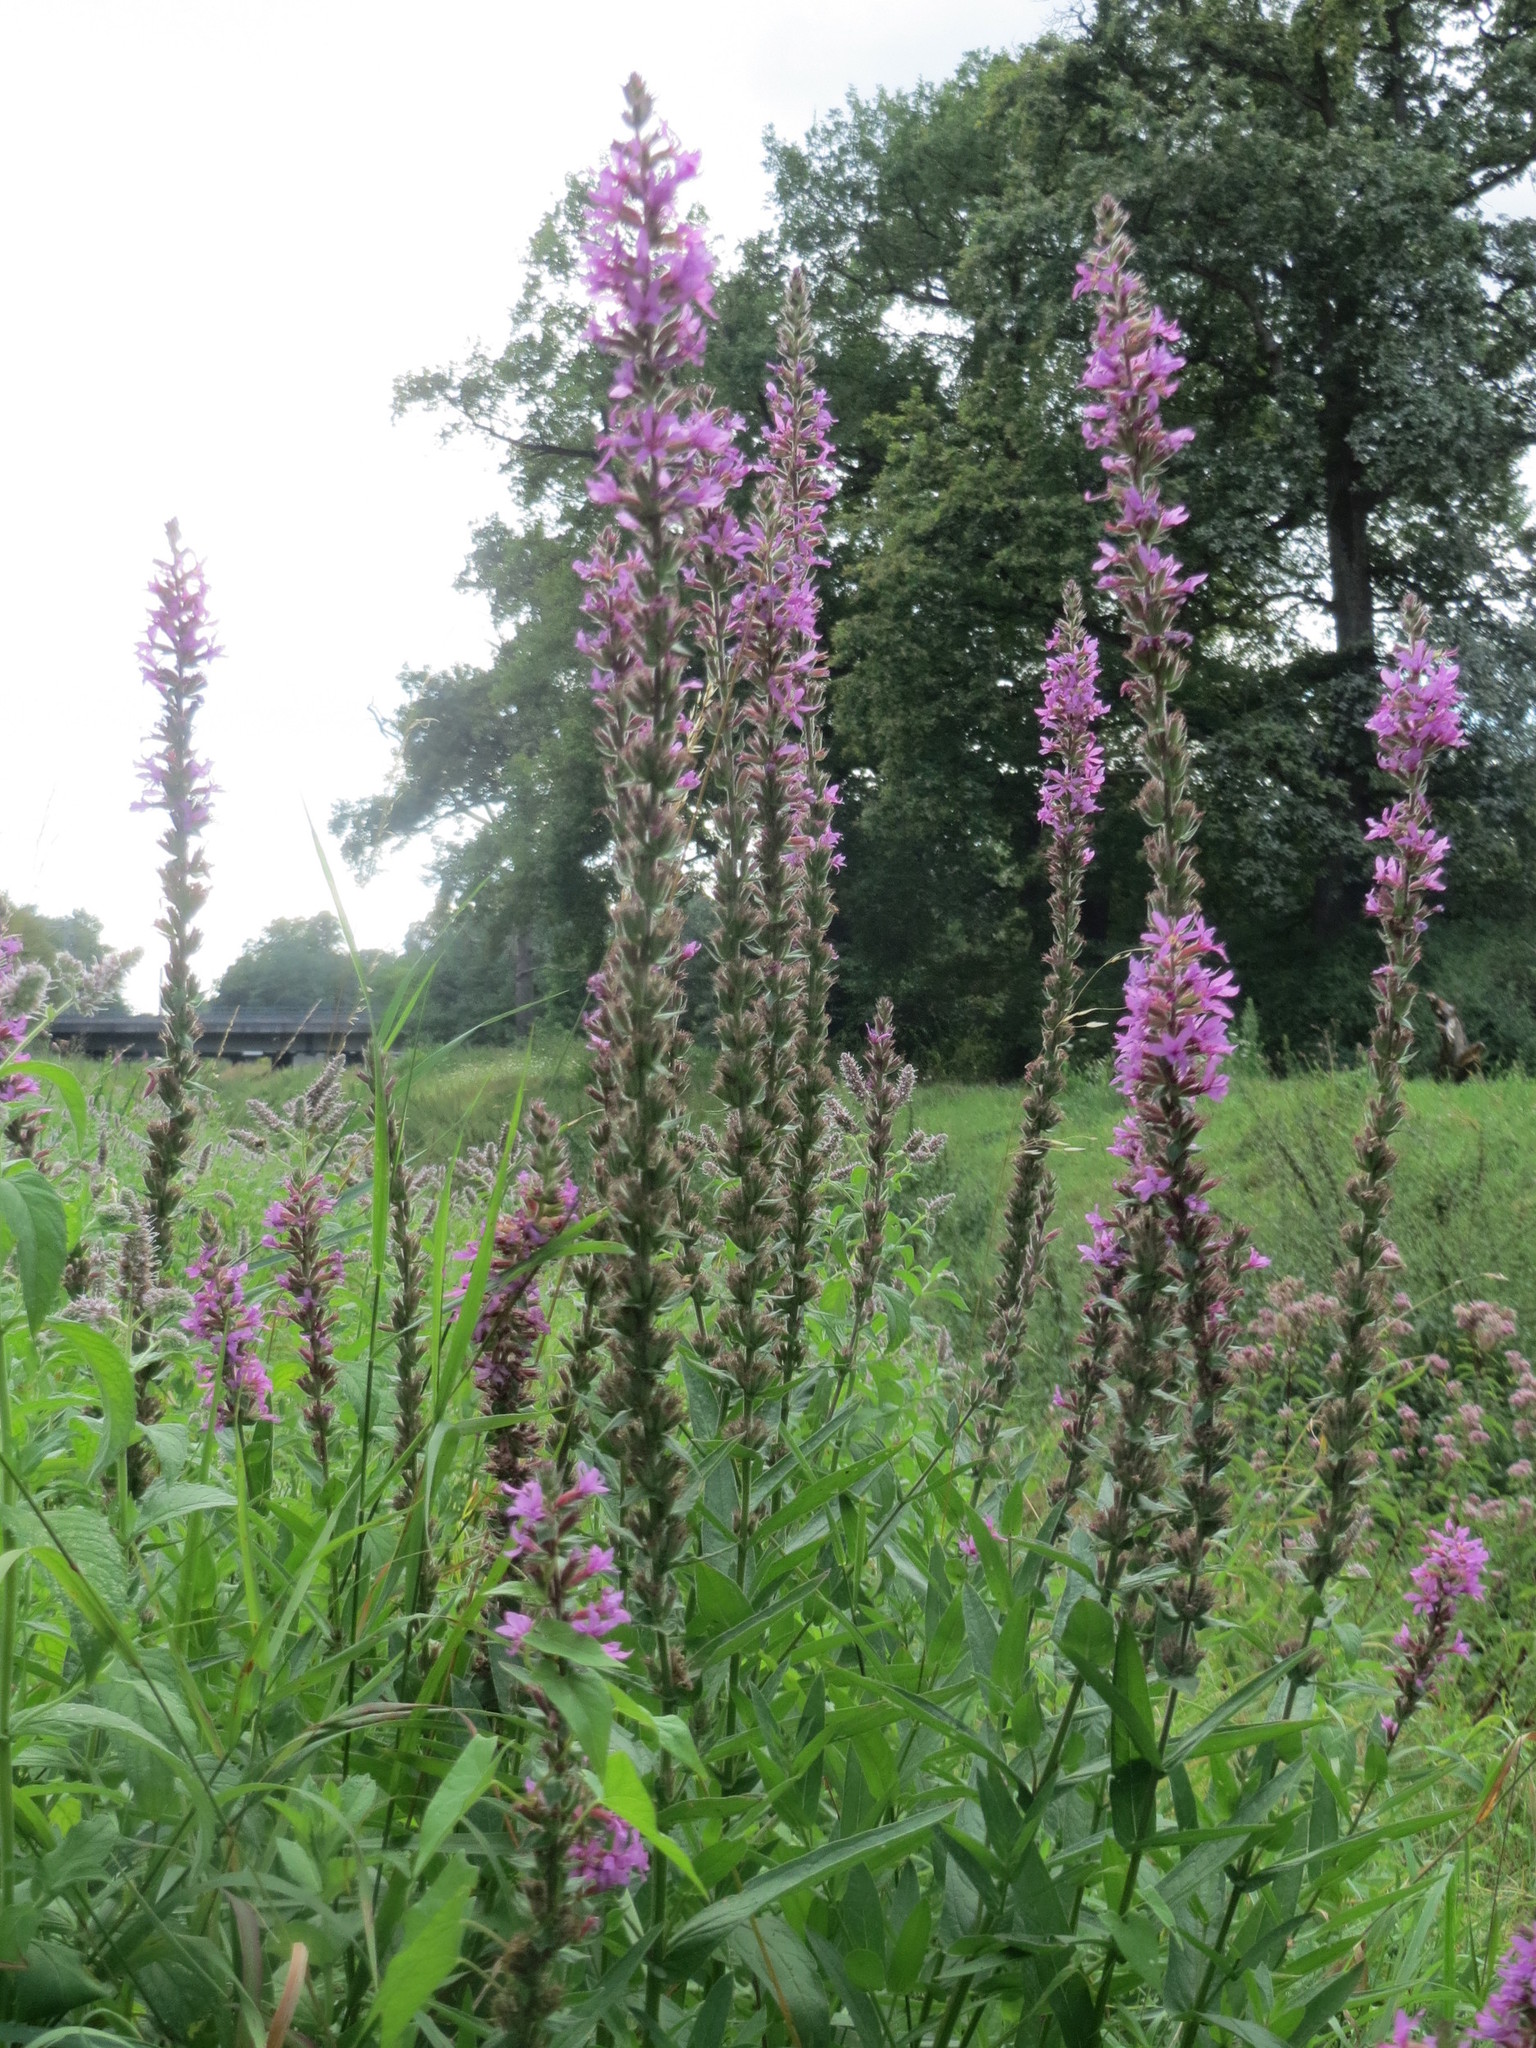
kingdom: Plantae
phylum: Tracheophyta
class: Magnoliopsida
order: Myrtales
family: Lythraceae
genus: Lythrum
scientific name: Lythrum salicaria
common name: Purple loosestrife
